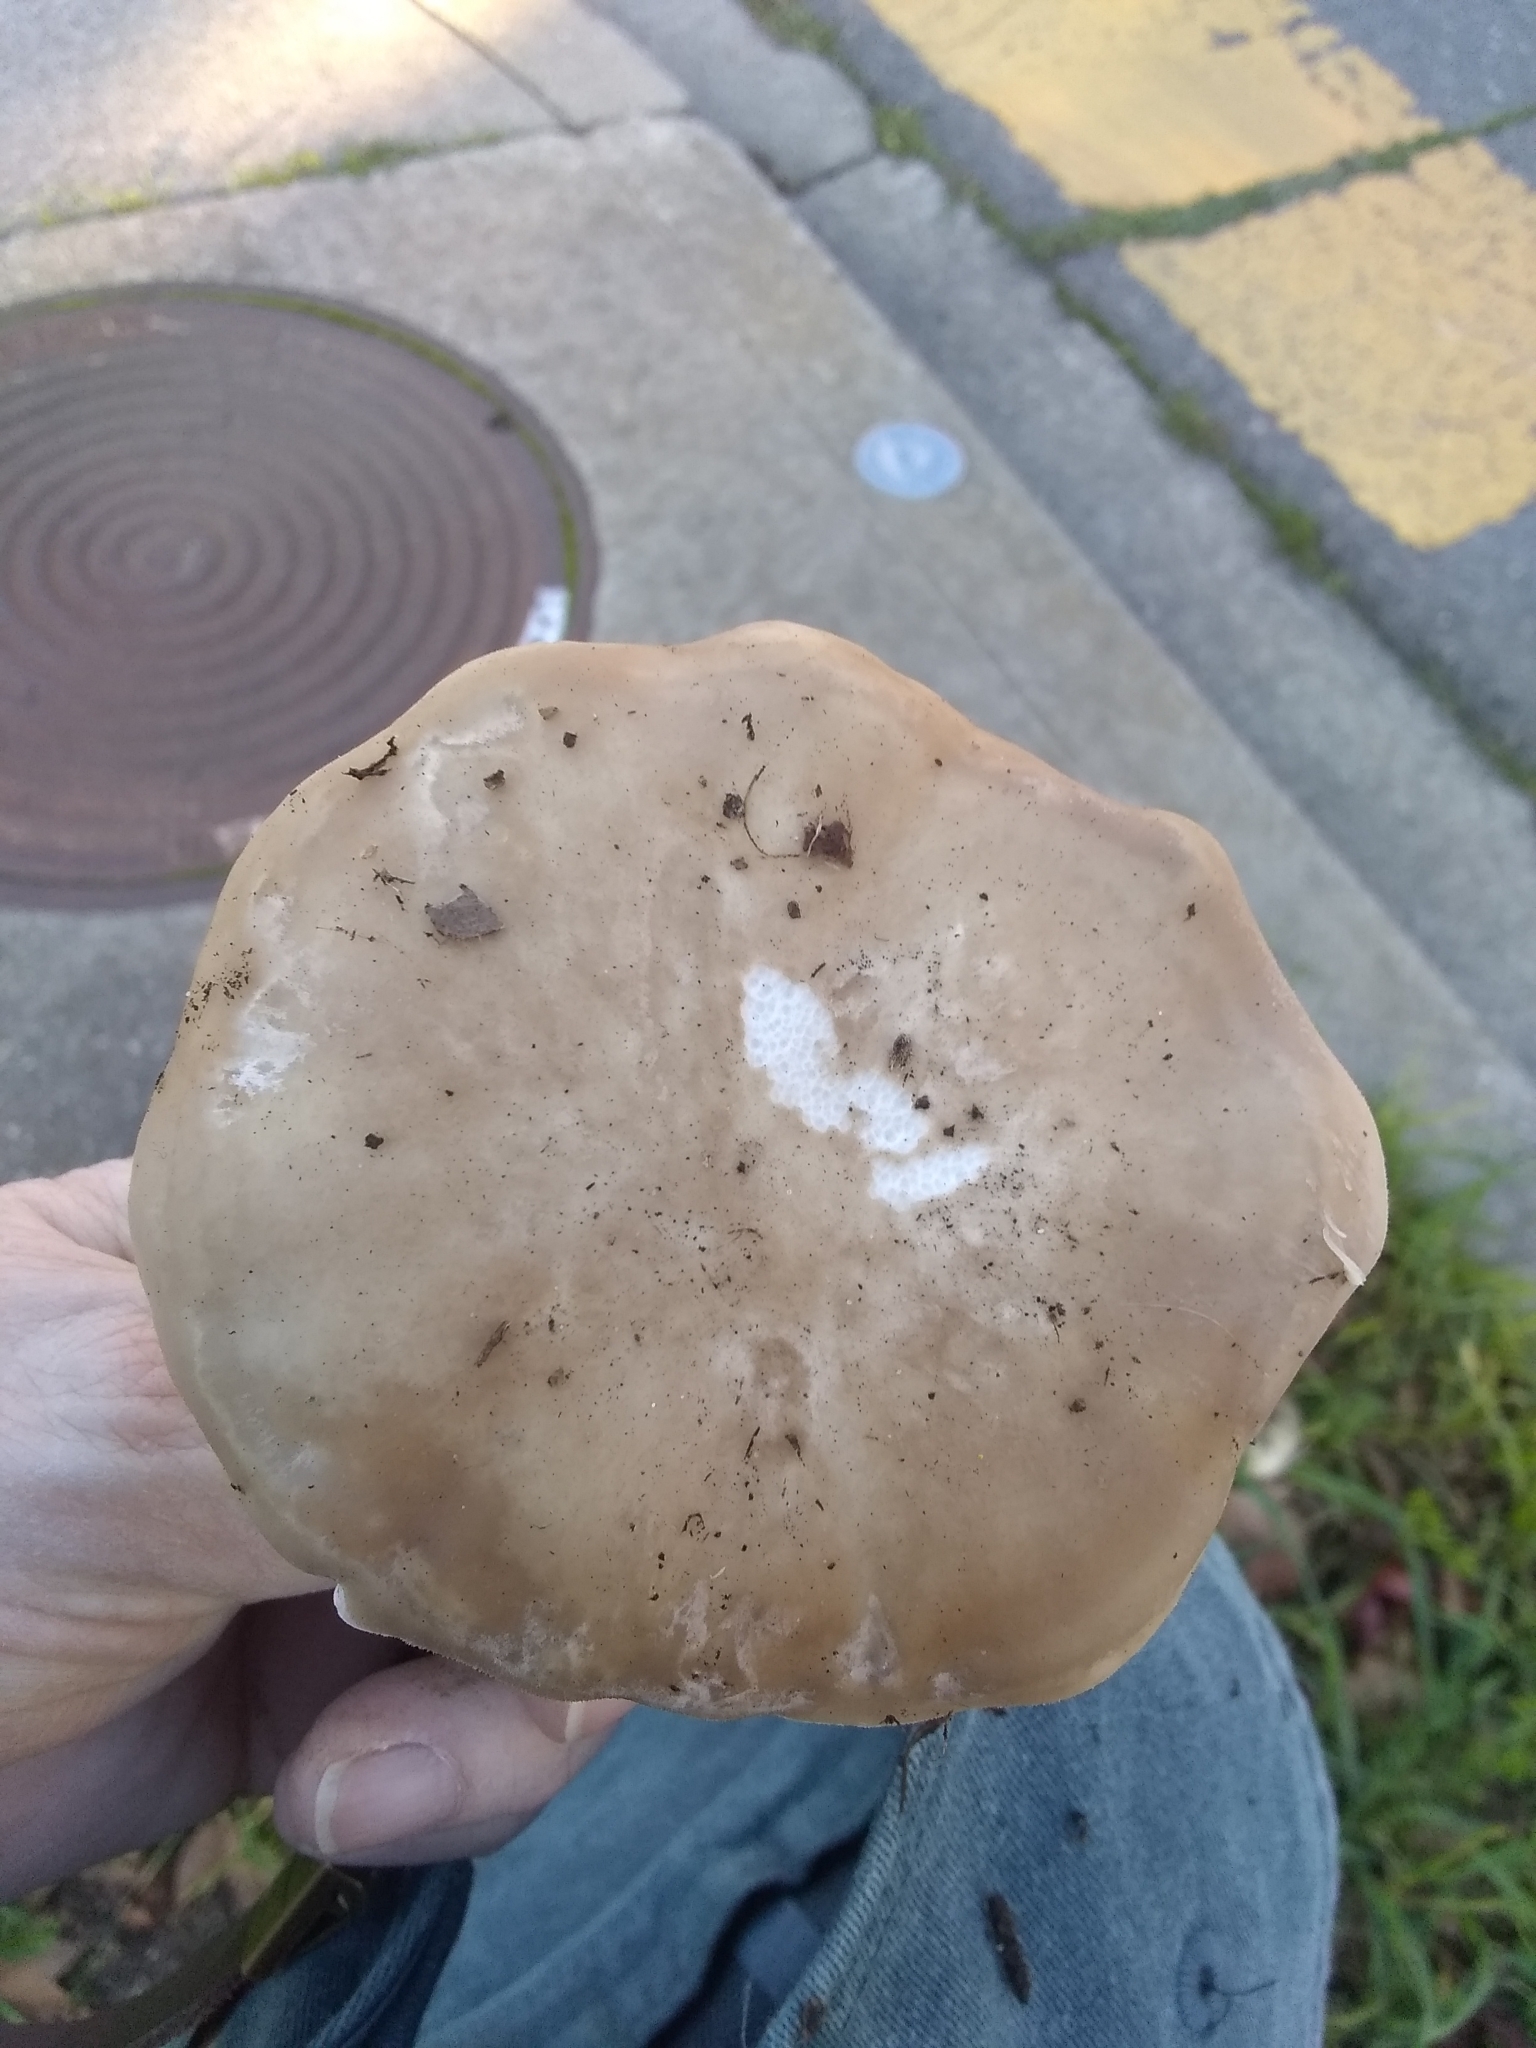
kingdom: Fungi
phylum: Basidiomycota
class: Agaricomycetes
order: Agaricales
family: Tricholomataceae
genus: Collybia
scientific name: Collybia
